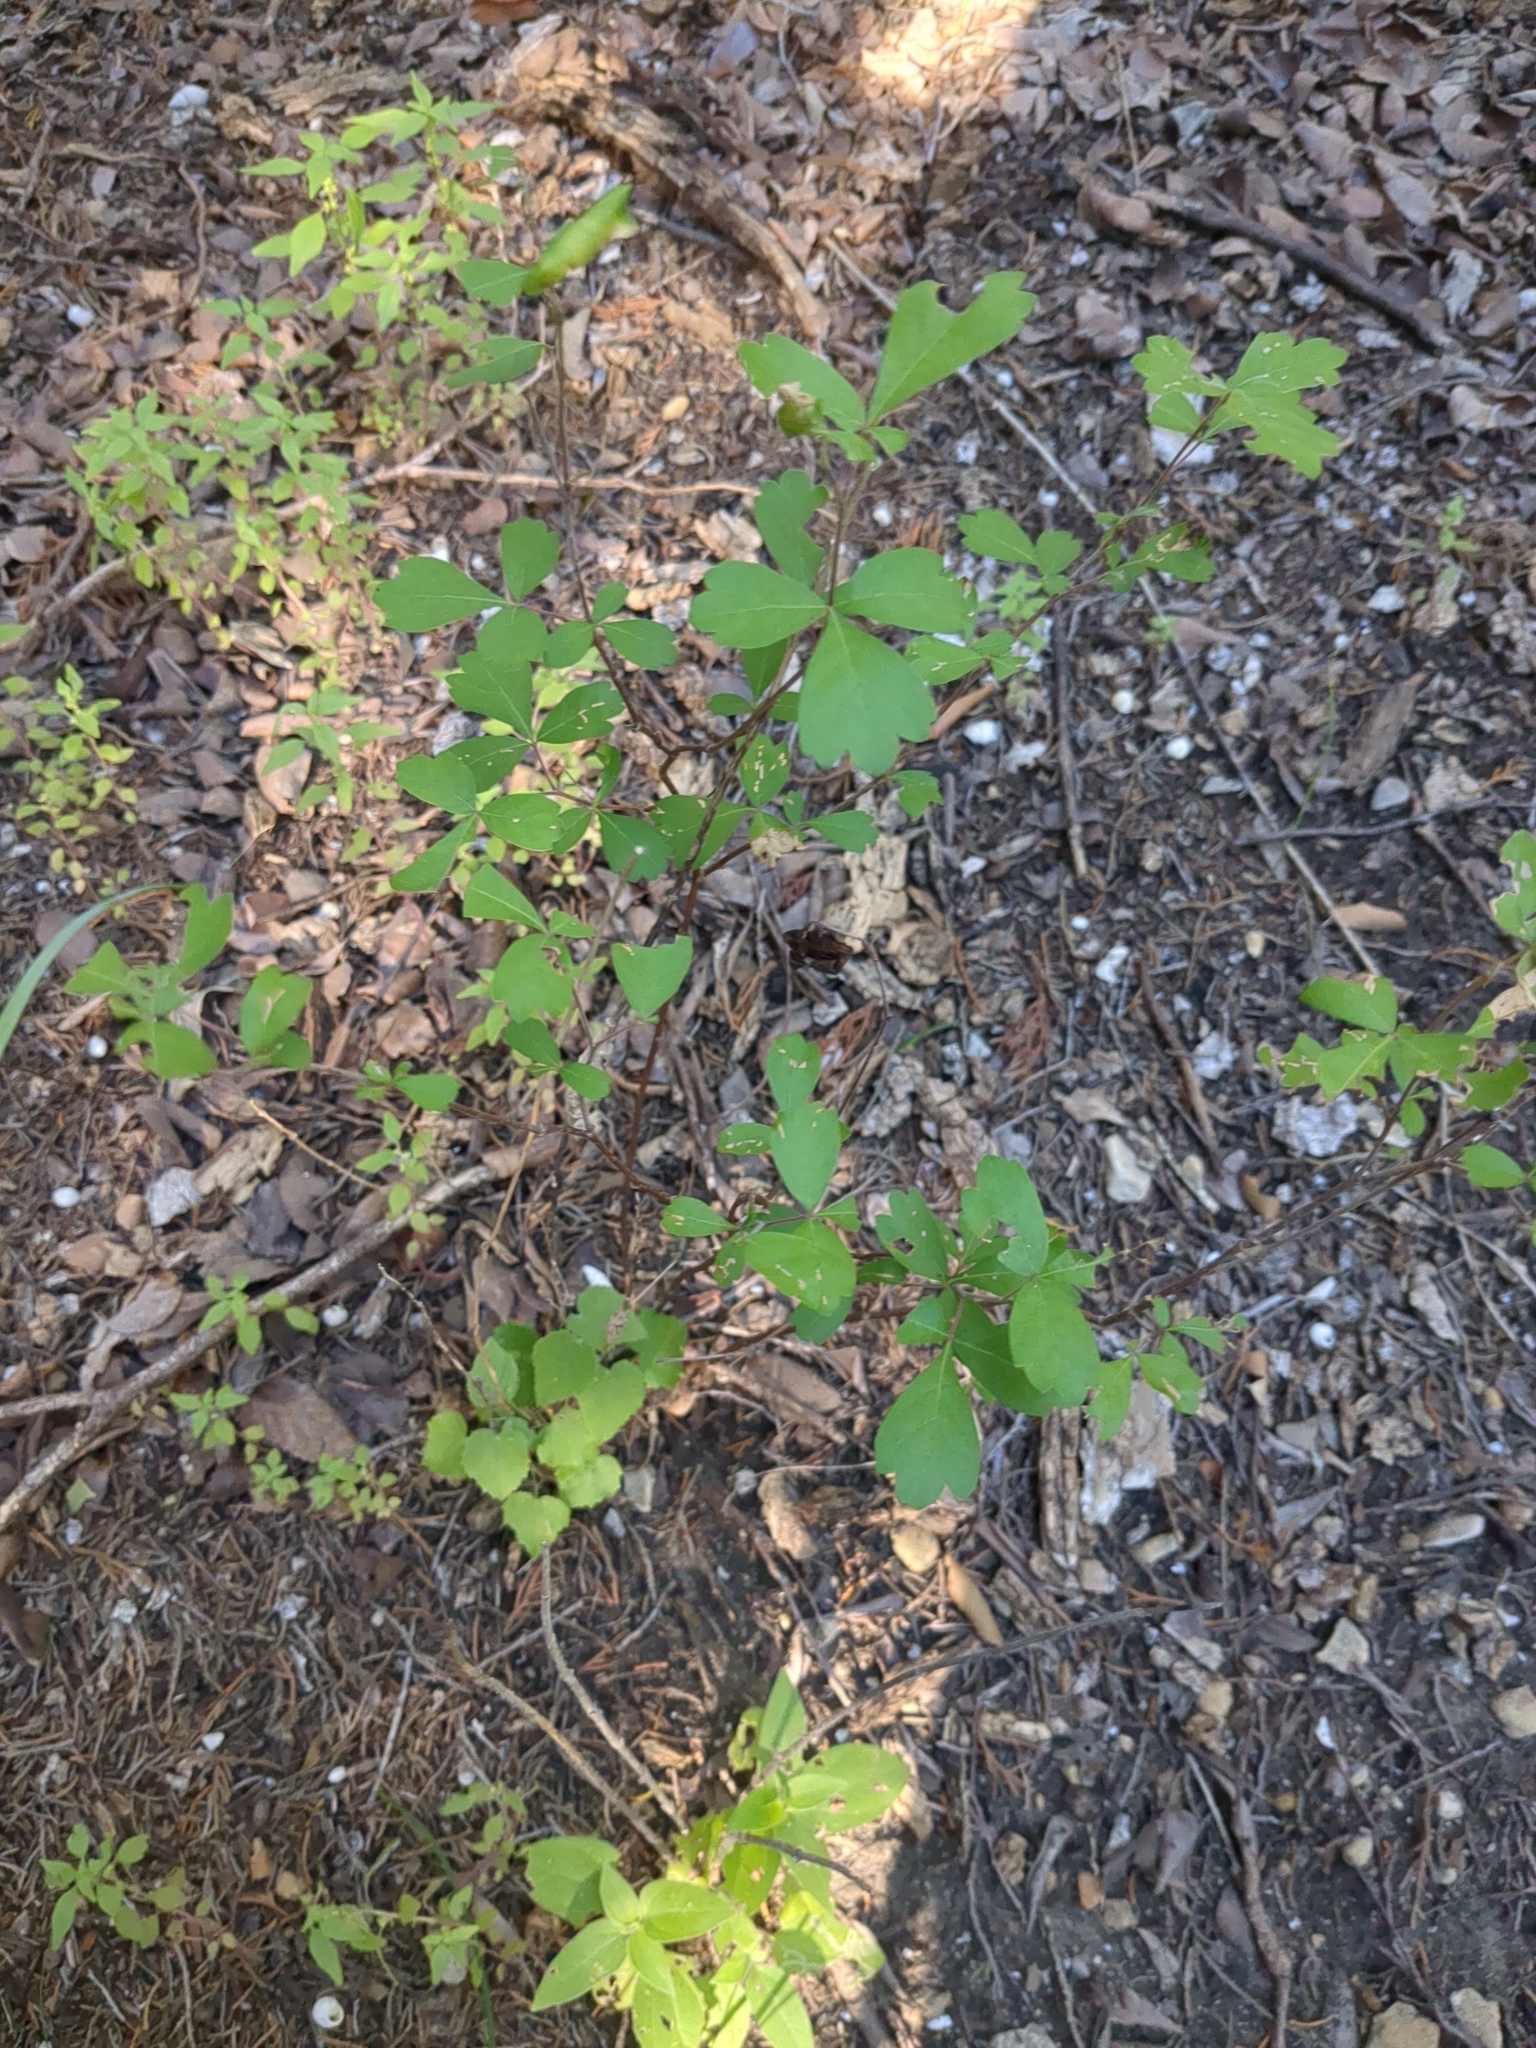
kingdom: Plantae
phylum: Tracheophyta
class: Magnoliopsida
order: Sapindales
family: Anacardiaceae
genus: Rhus
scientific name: Rhus aromatica
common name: Aromatic sumac
